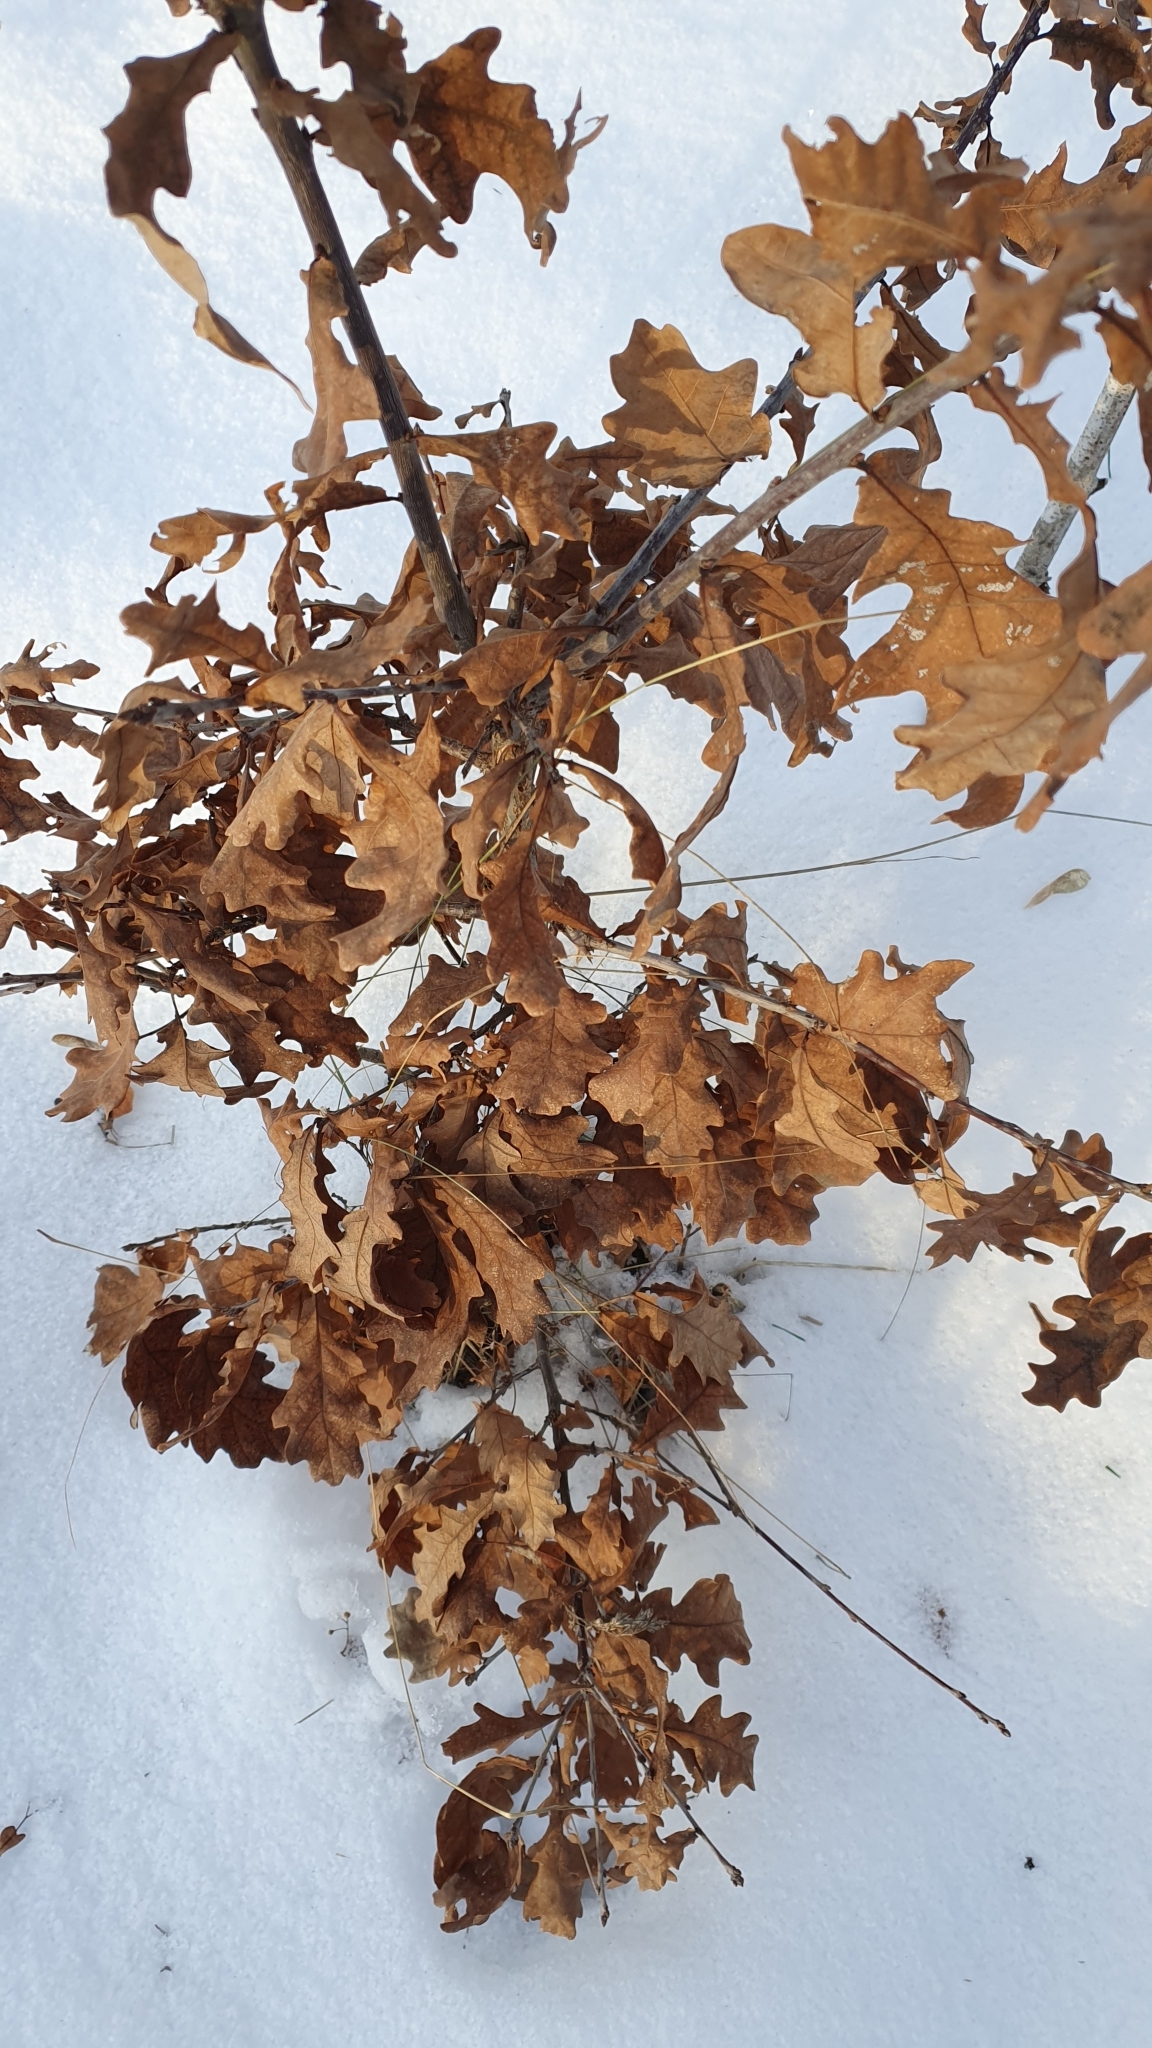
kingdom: Plantae
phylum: Tracheophyta
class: Magnoliopsida
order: Fagales
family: Fagaceae
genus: Quercus
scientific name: Quercus robur
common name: Pedunculate oak
